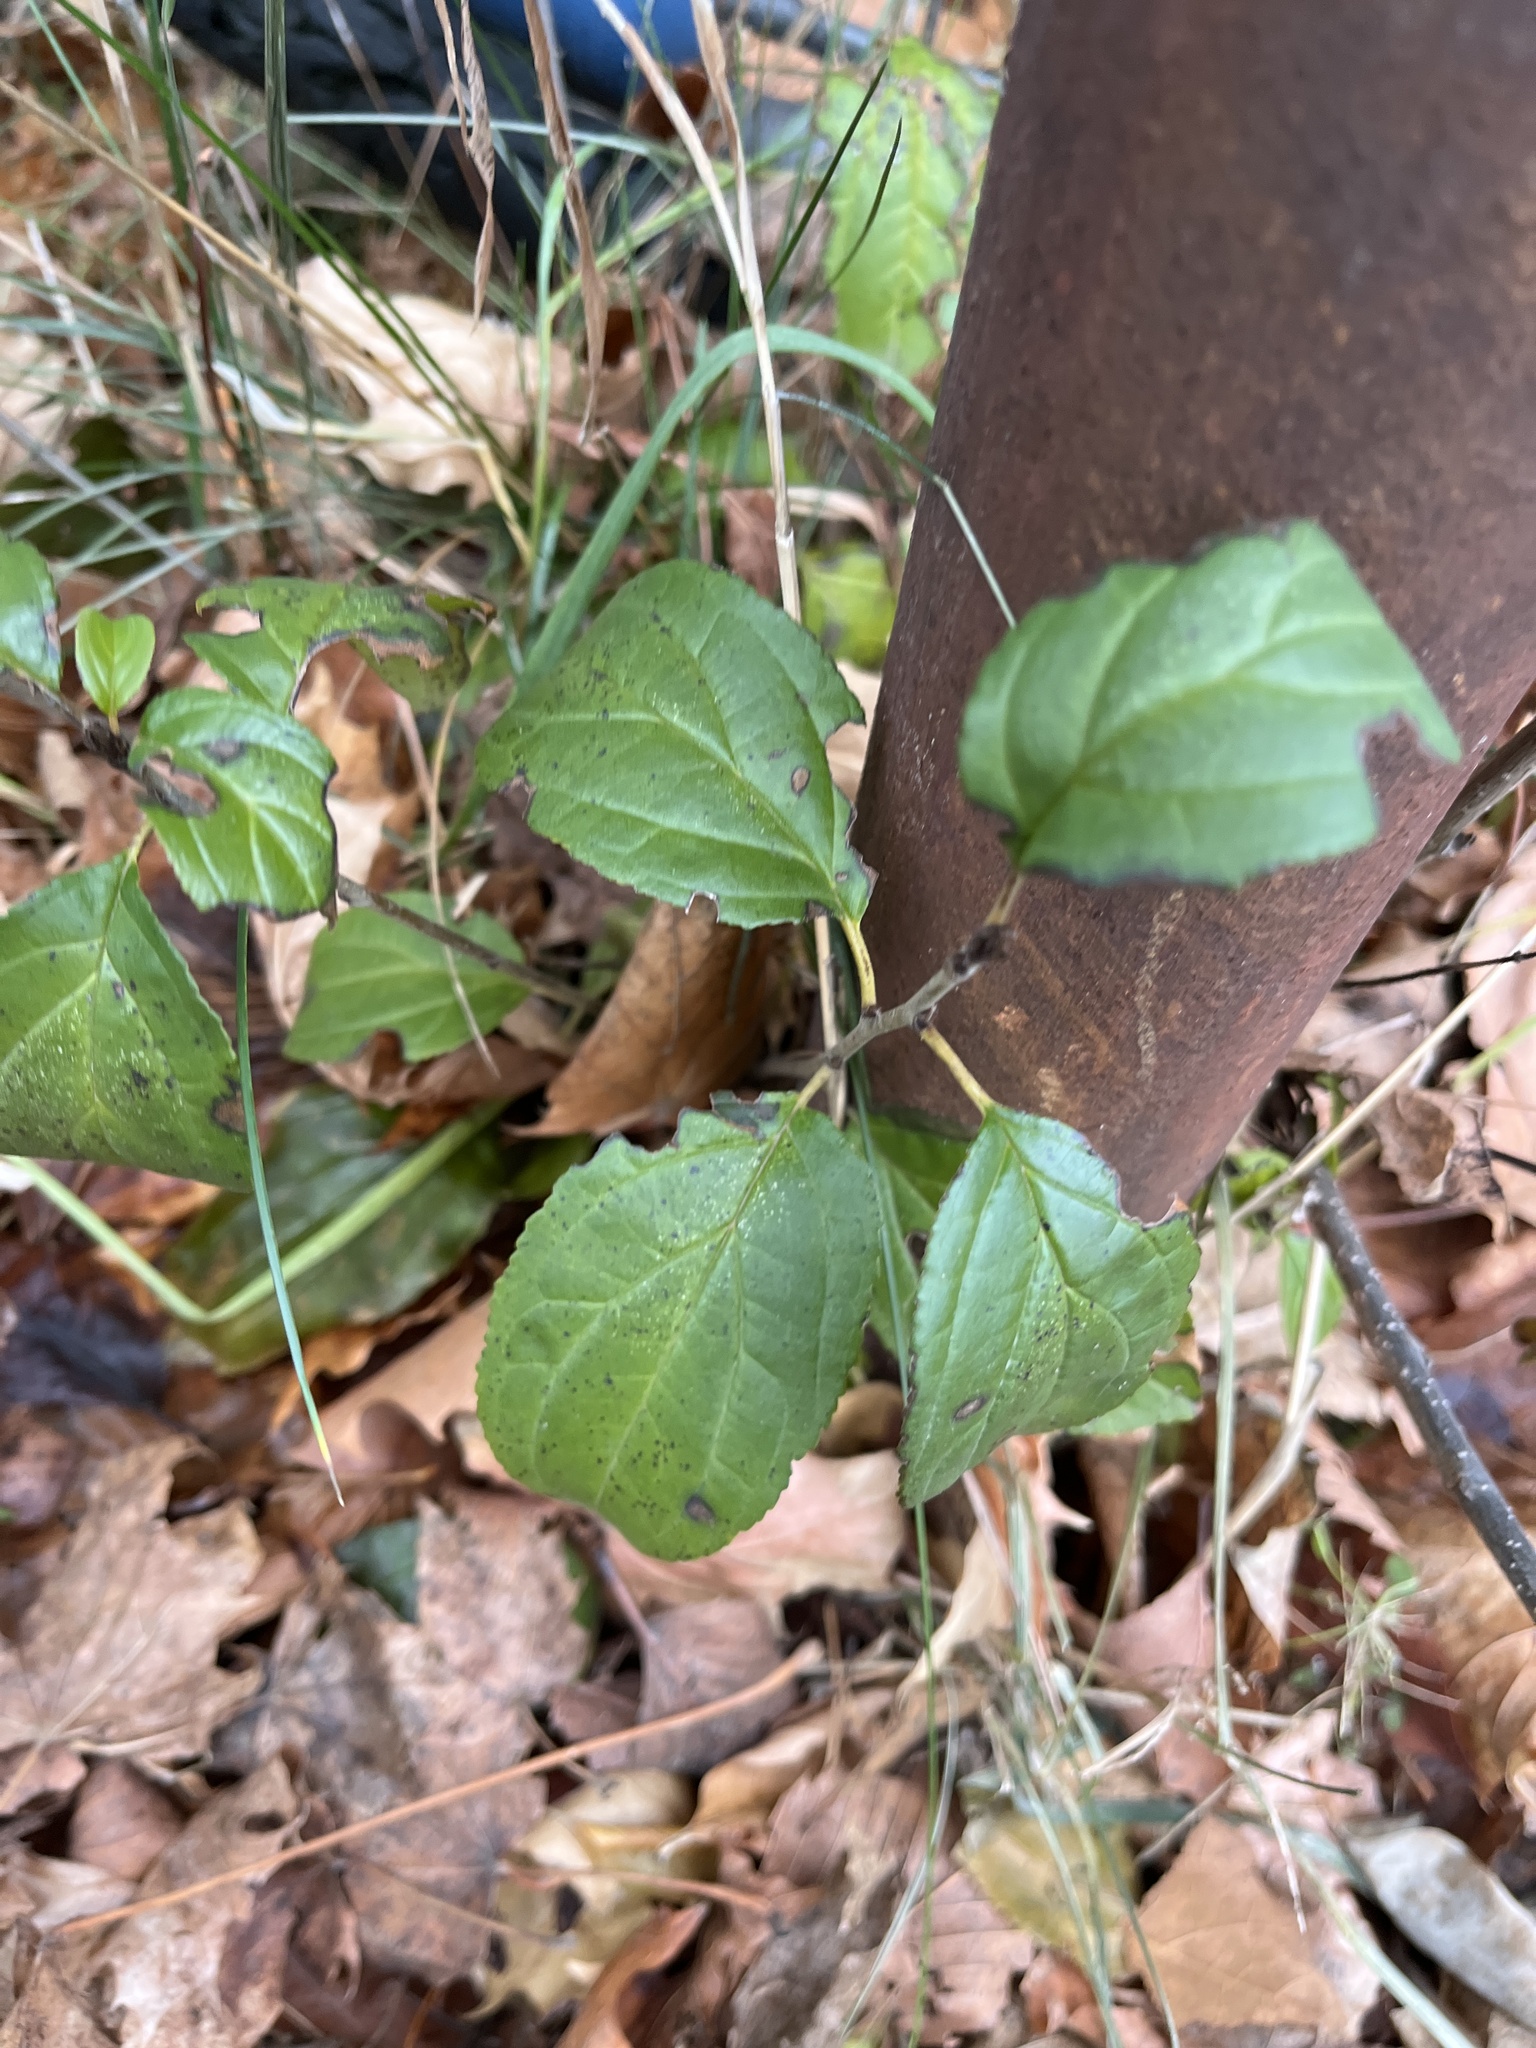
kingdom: Plantae
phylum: Tracheophyta
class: Magnoliopsida
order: Rosales
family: Rhamnaceae
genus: Rhamnus
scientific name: Rhamnus cathartica
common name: Common buckthorn
